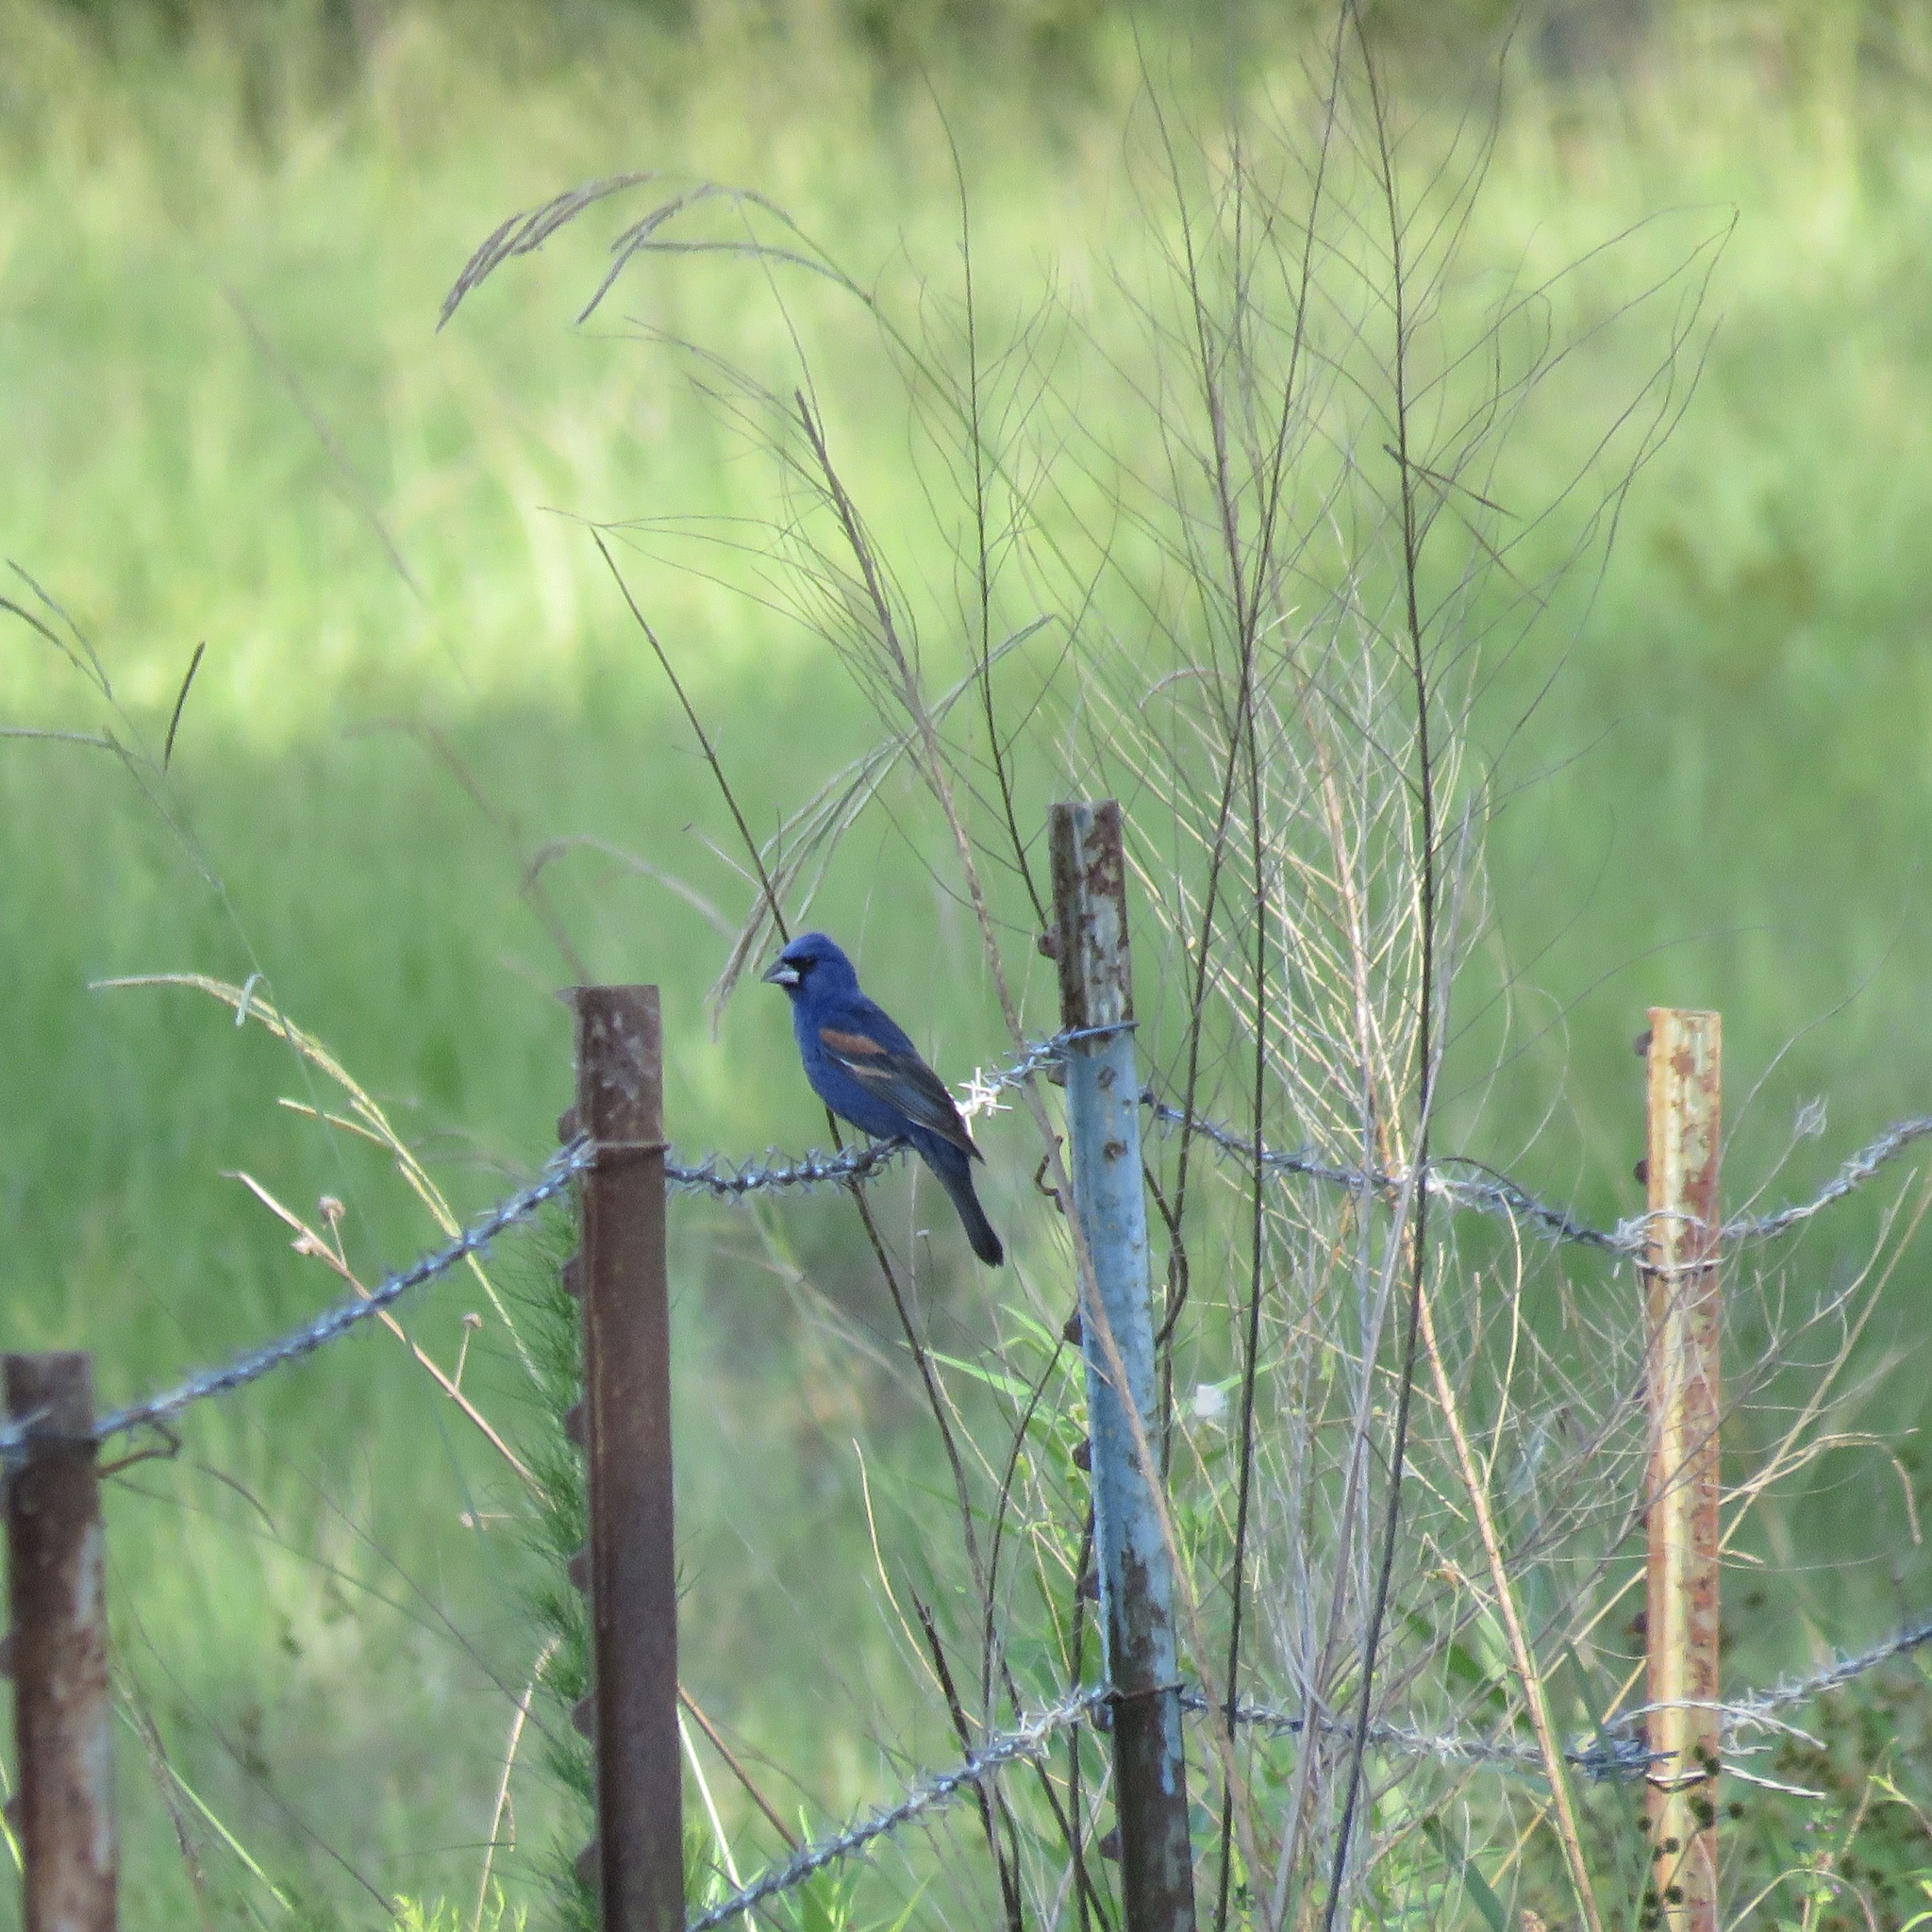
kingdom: Animalia
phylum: Chordata
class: Aves
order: Passeriformes
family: Cardinalidae
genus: Passerina
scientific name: Passerina caerulea
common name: Blue grosbeak
